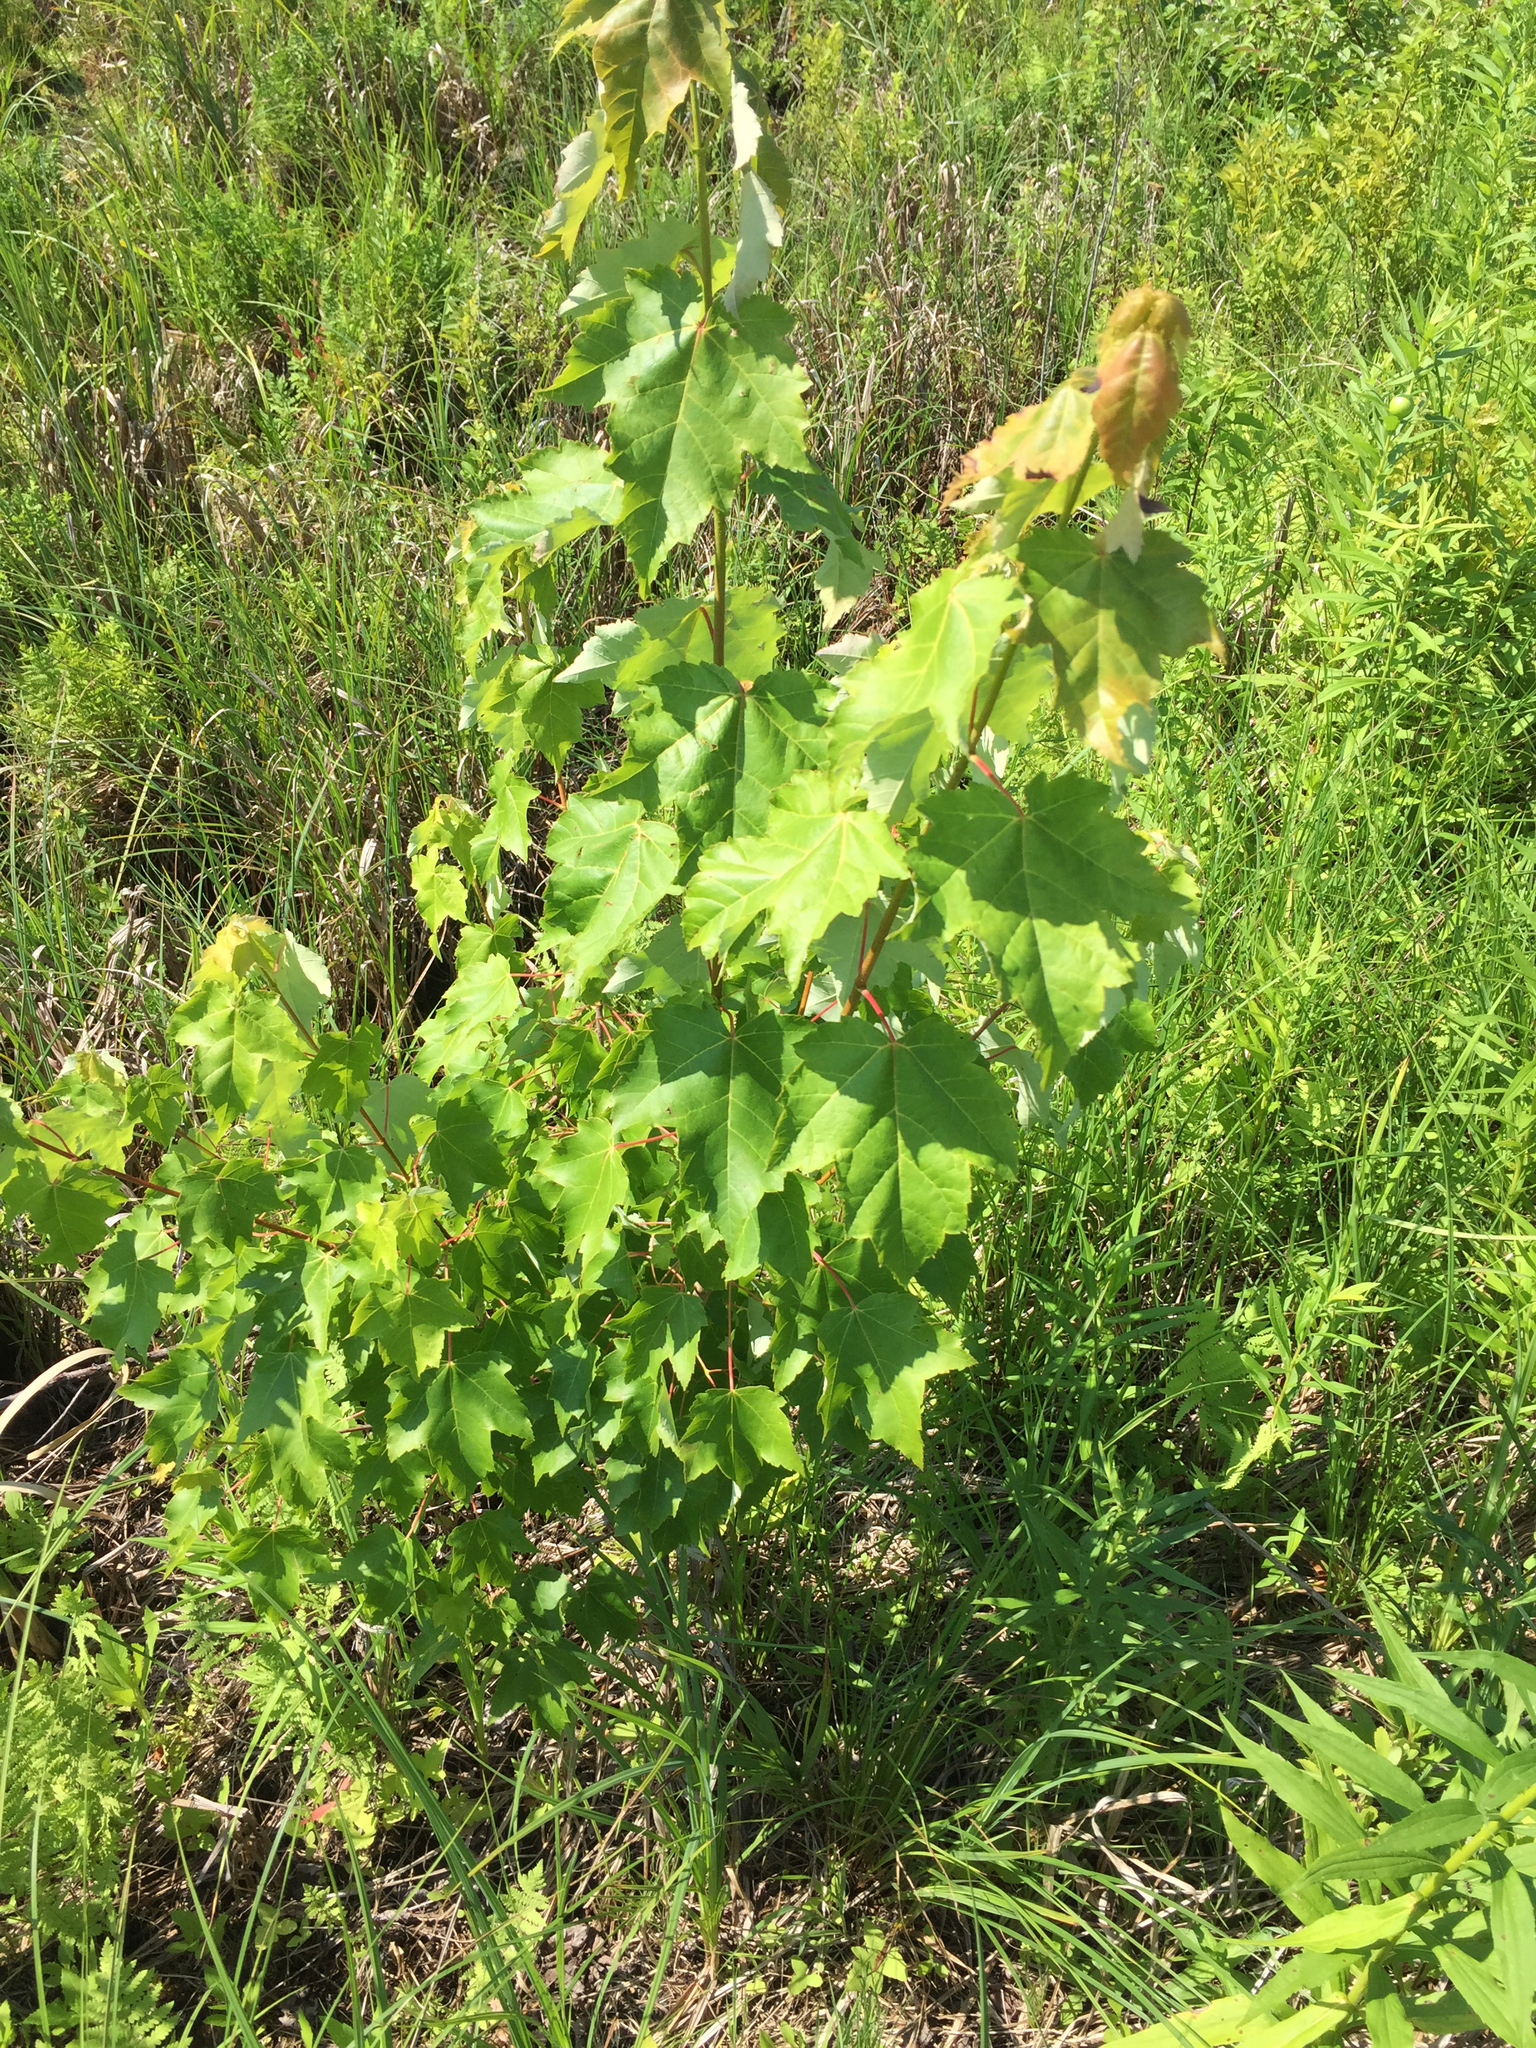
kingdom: Plantae
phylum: Tracheophyta
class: Magnoliopsida
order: Sapindales
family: Sapindaceae
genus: Acer
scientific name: Acer rubrum
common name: Red maple
